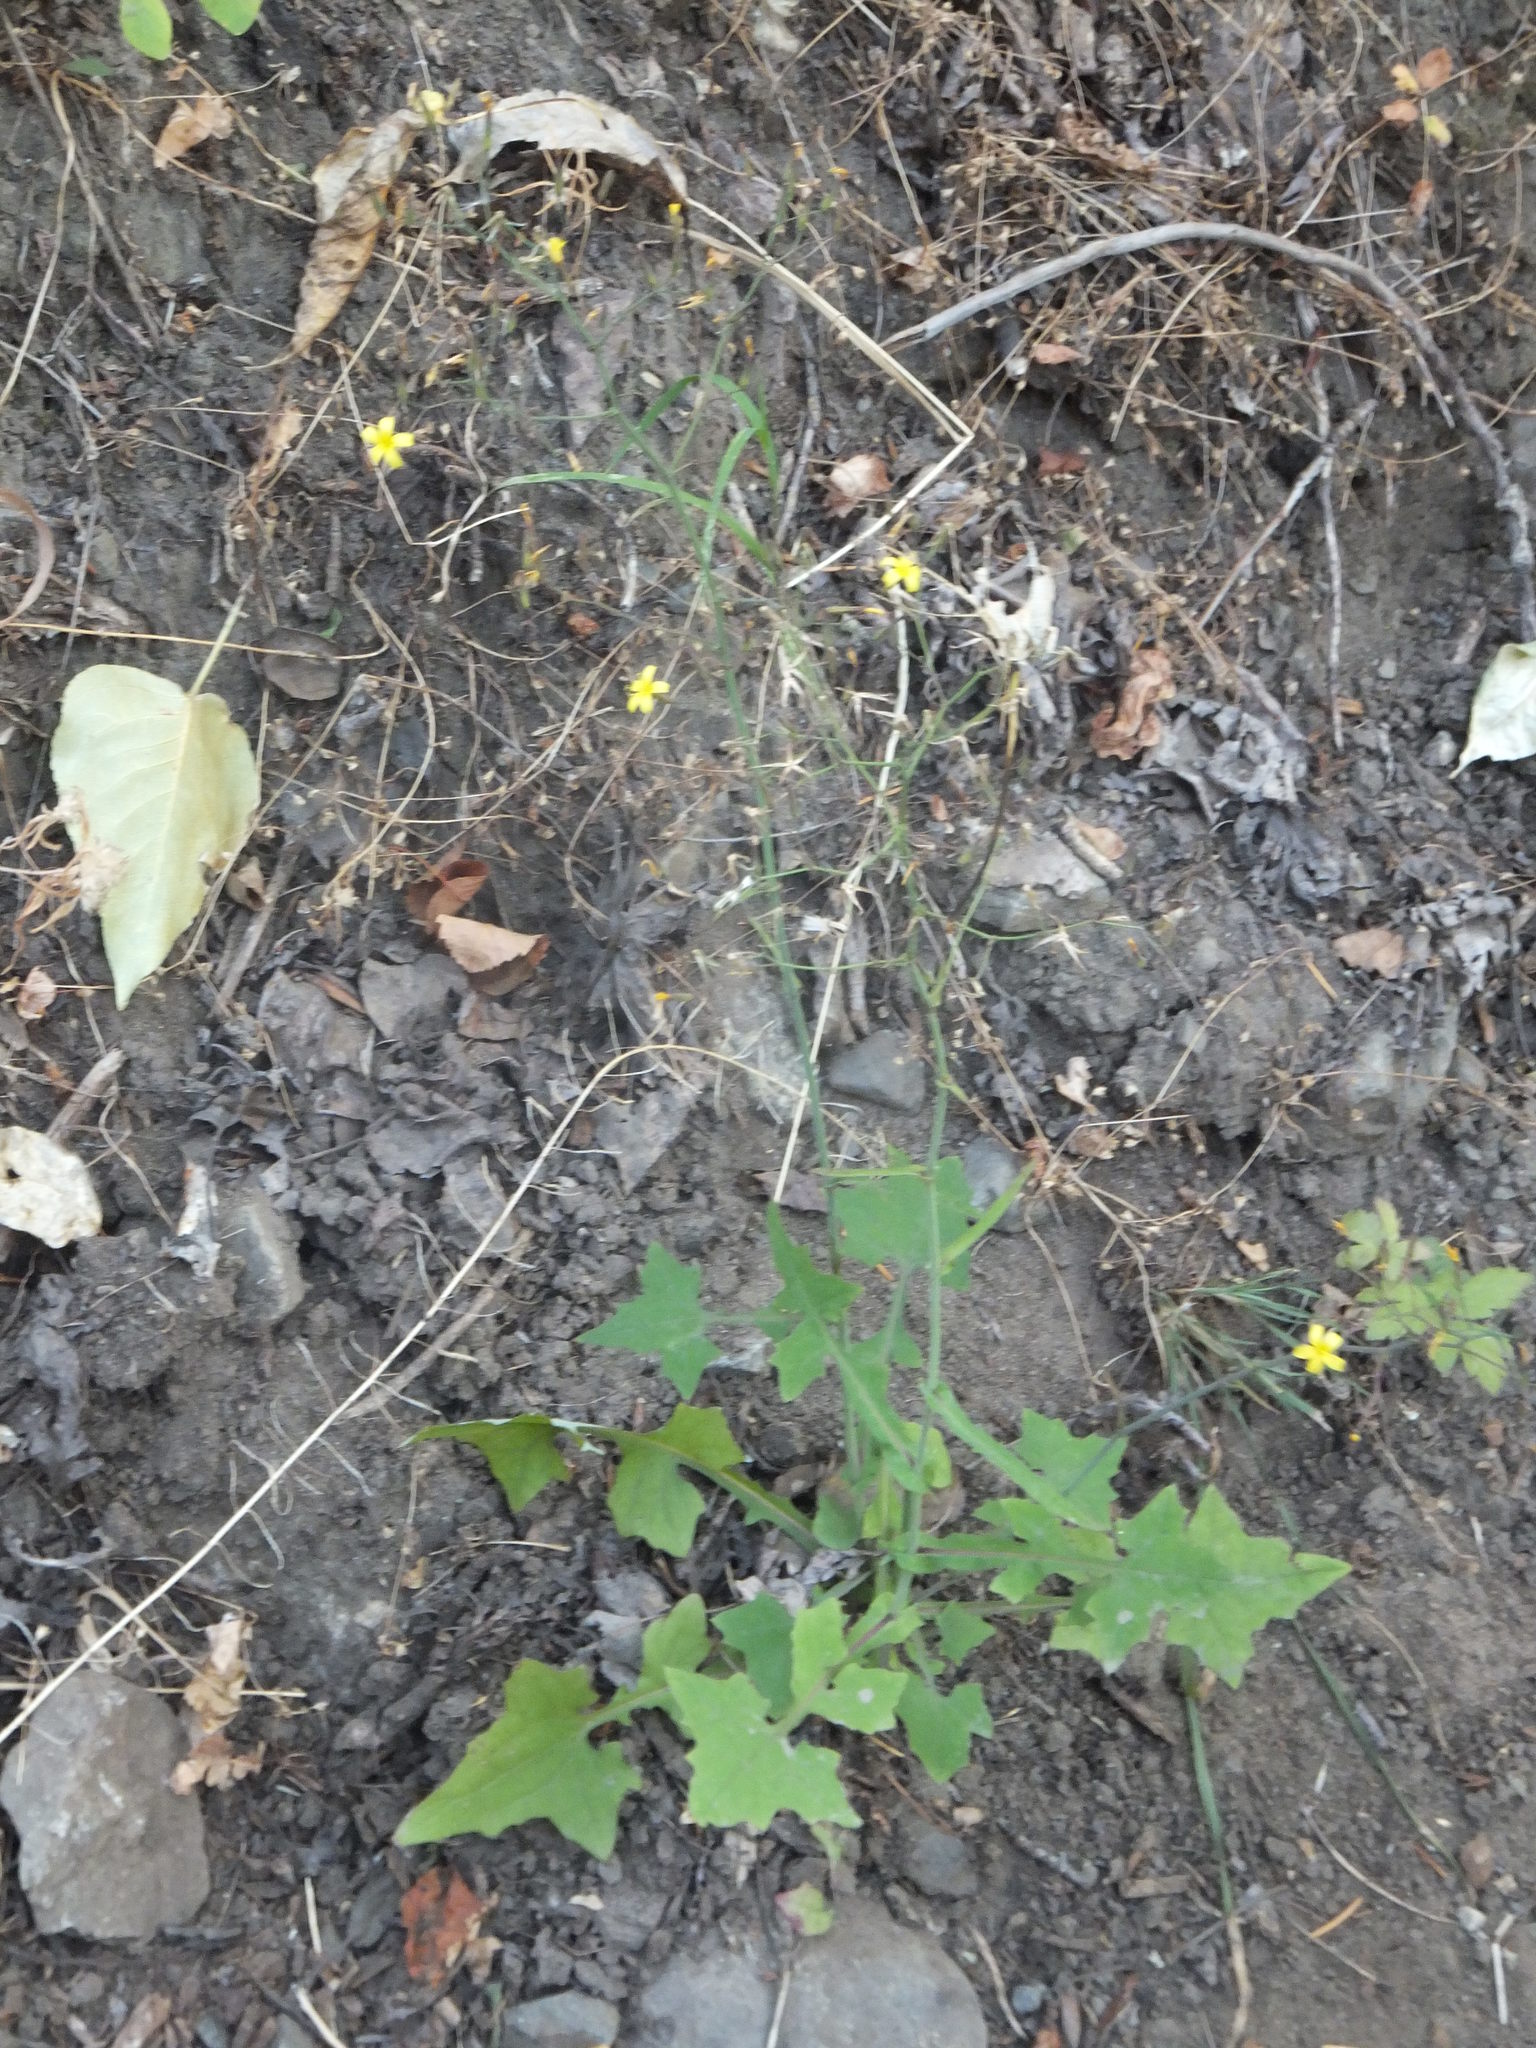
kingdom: Plantae
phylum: Tracheophyta
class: Magnoliopsida
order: Asterales
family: Asteraceae
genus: Mycelis
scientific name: Mycelis muralis
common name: Wall lettuce
